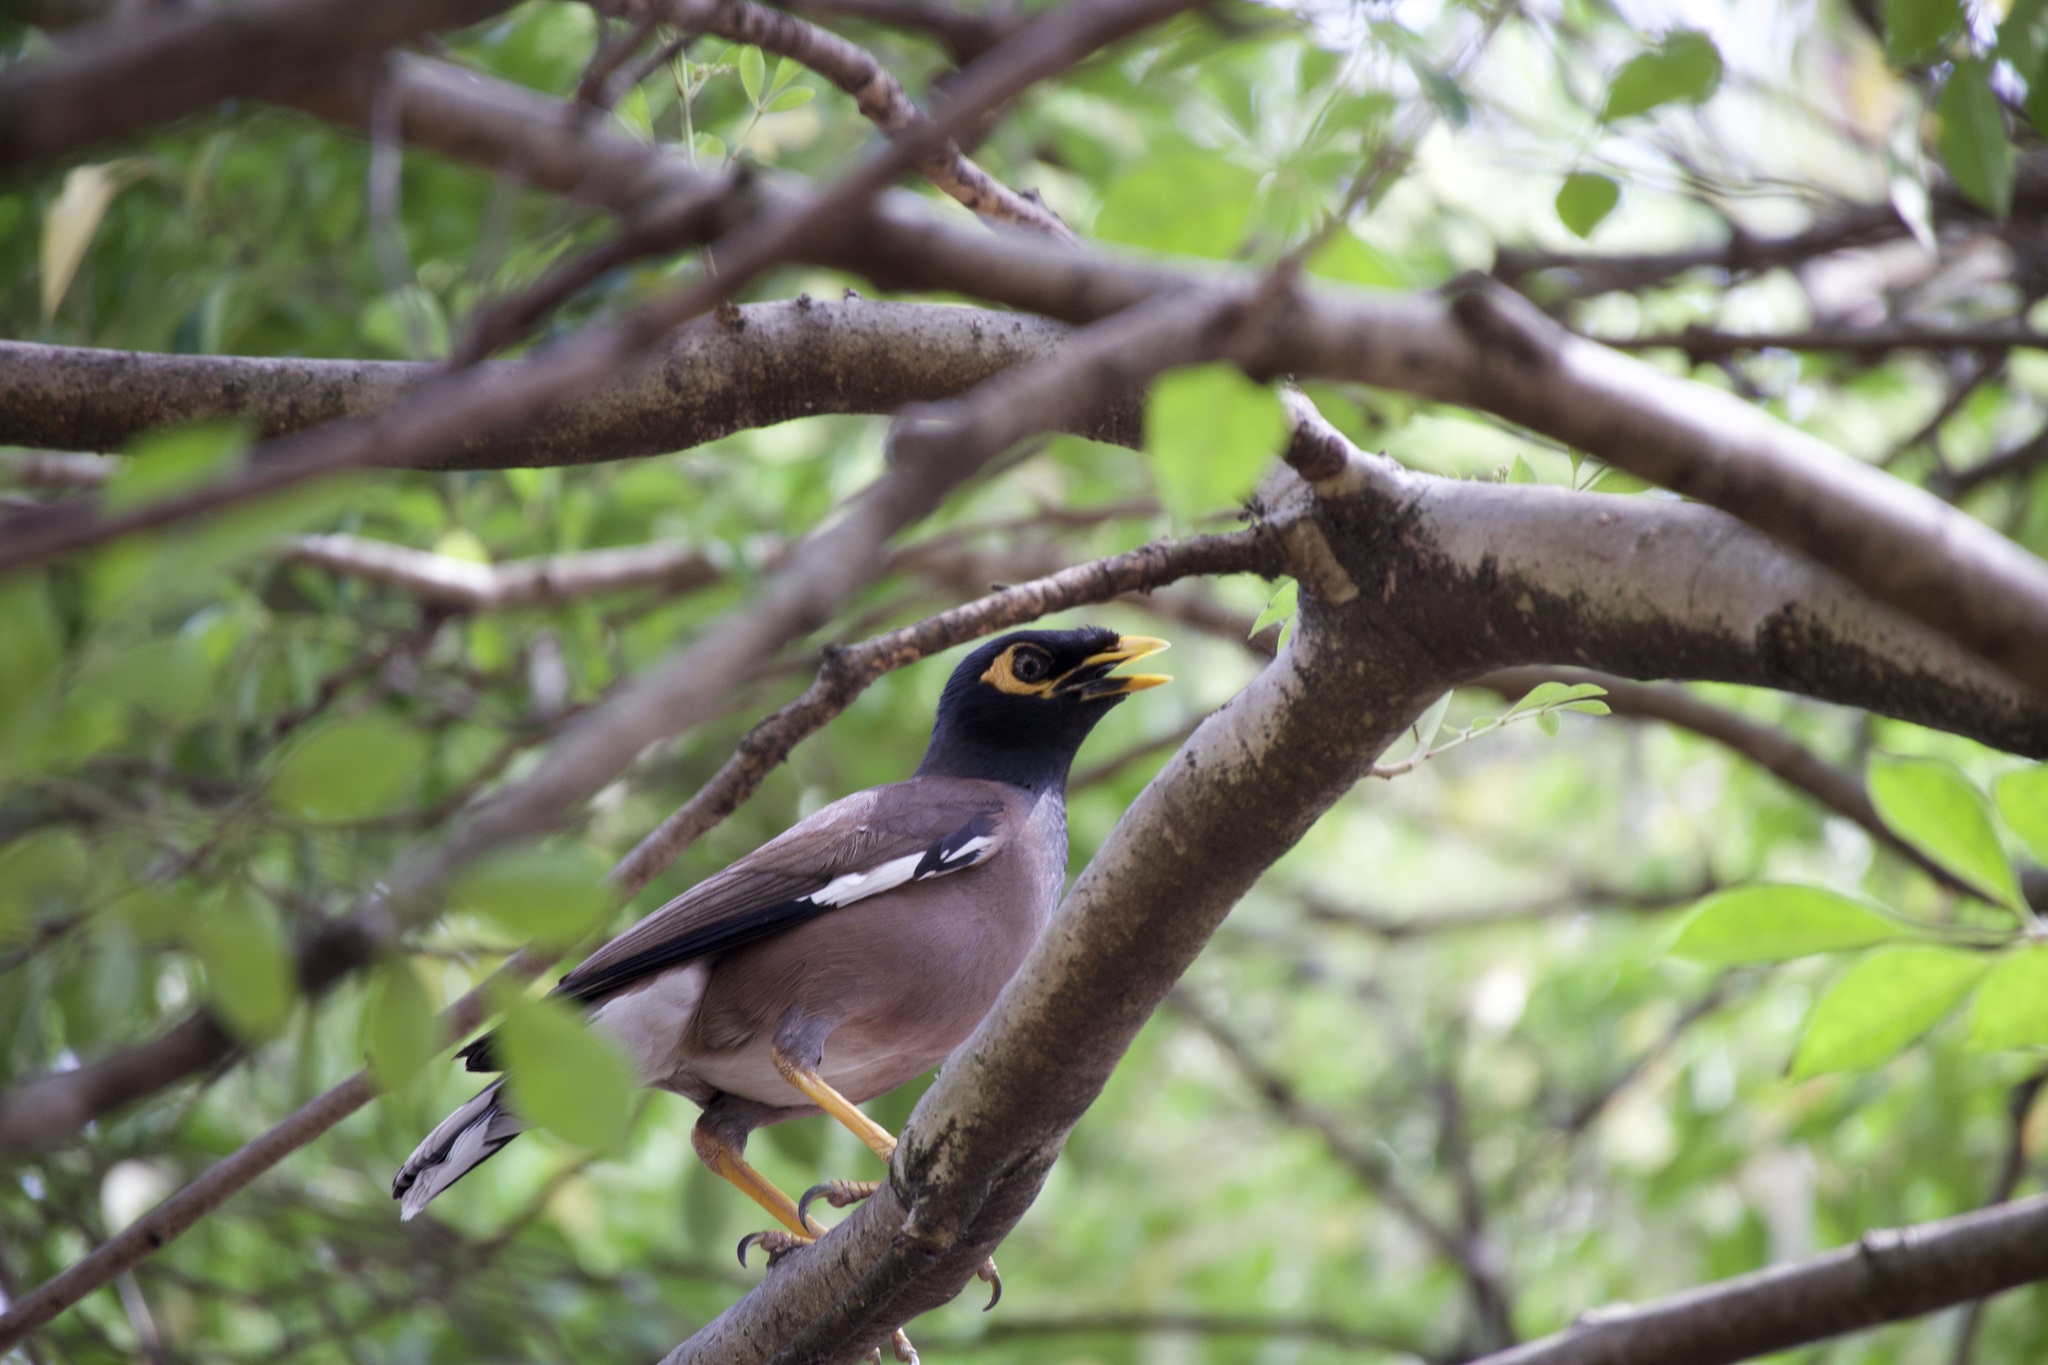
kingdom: Animalia
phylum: Chordata
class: Aves
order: Passeriformes
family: Sturnidae
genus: Acridotheres
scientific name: Acridotheres tristis
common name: Common myna
